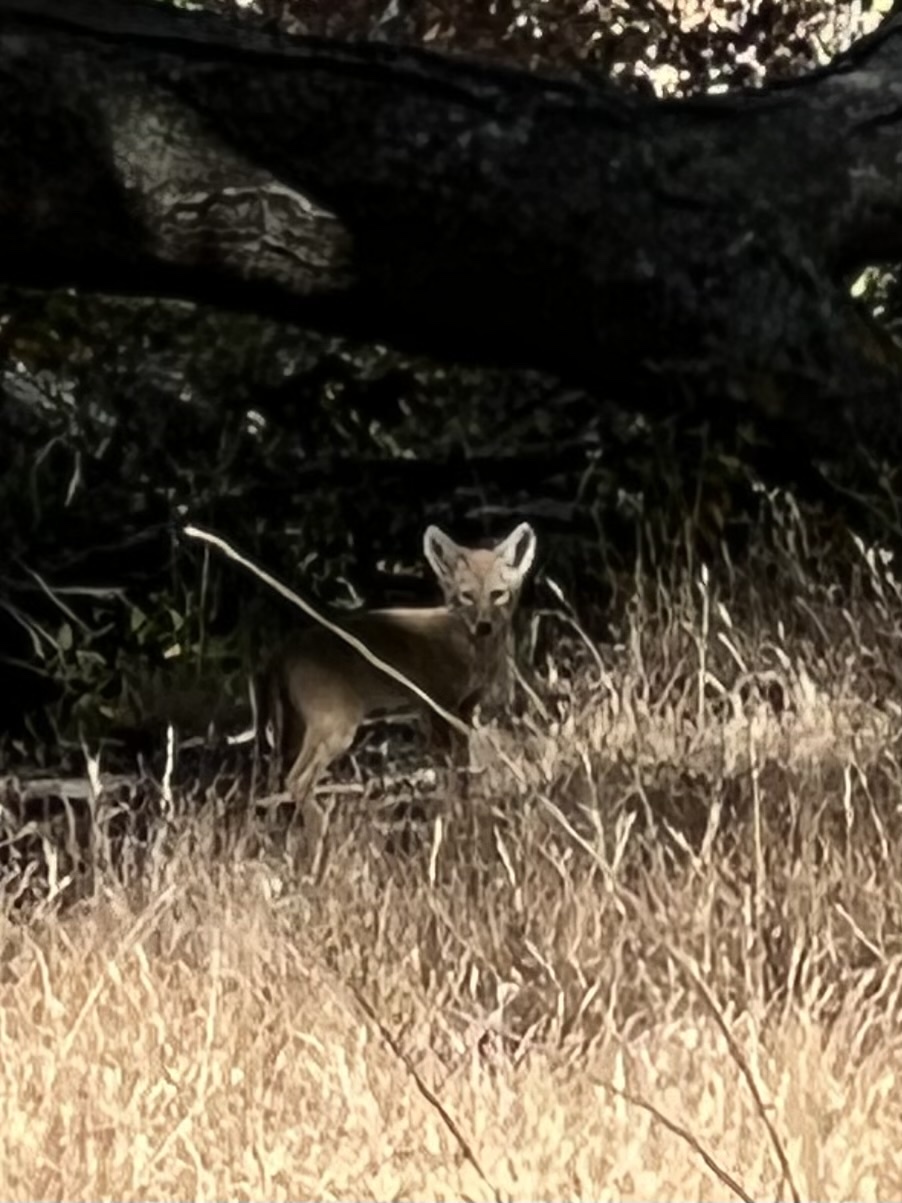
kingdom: Animalia
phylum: Chordata
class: Mammalia
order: Carnivora
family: Canidae
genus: Canis
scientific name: Canis latrans
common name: Coyote
